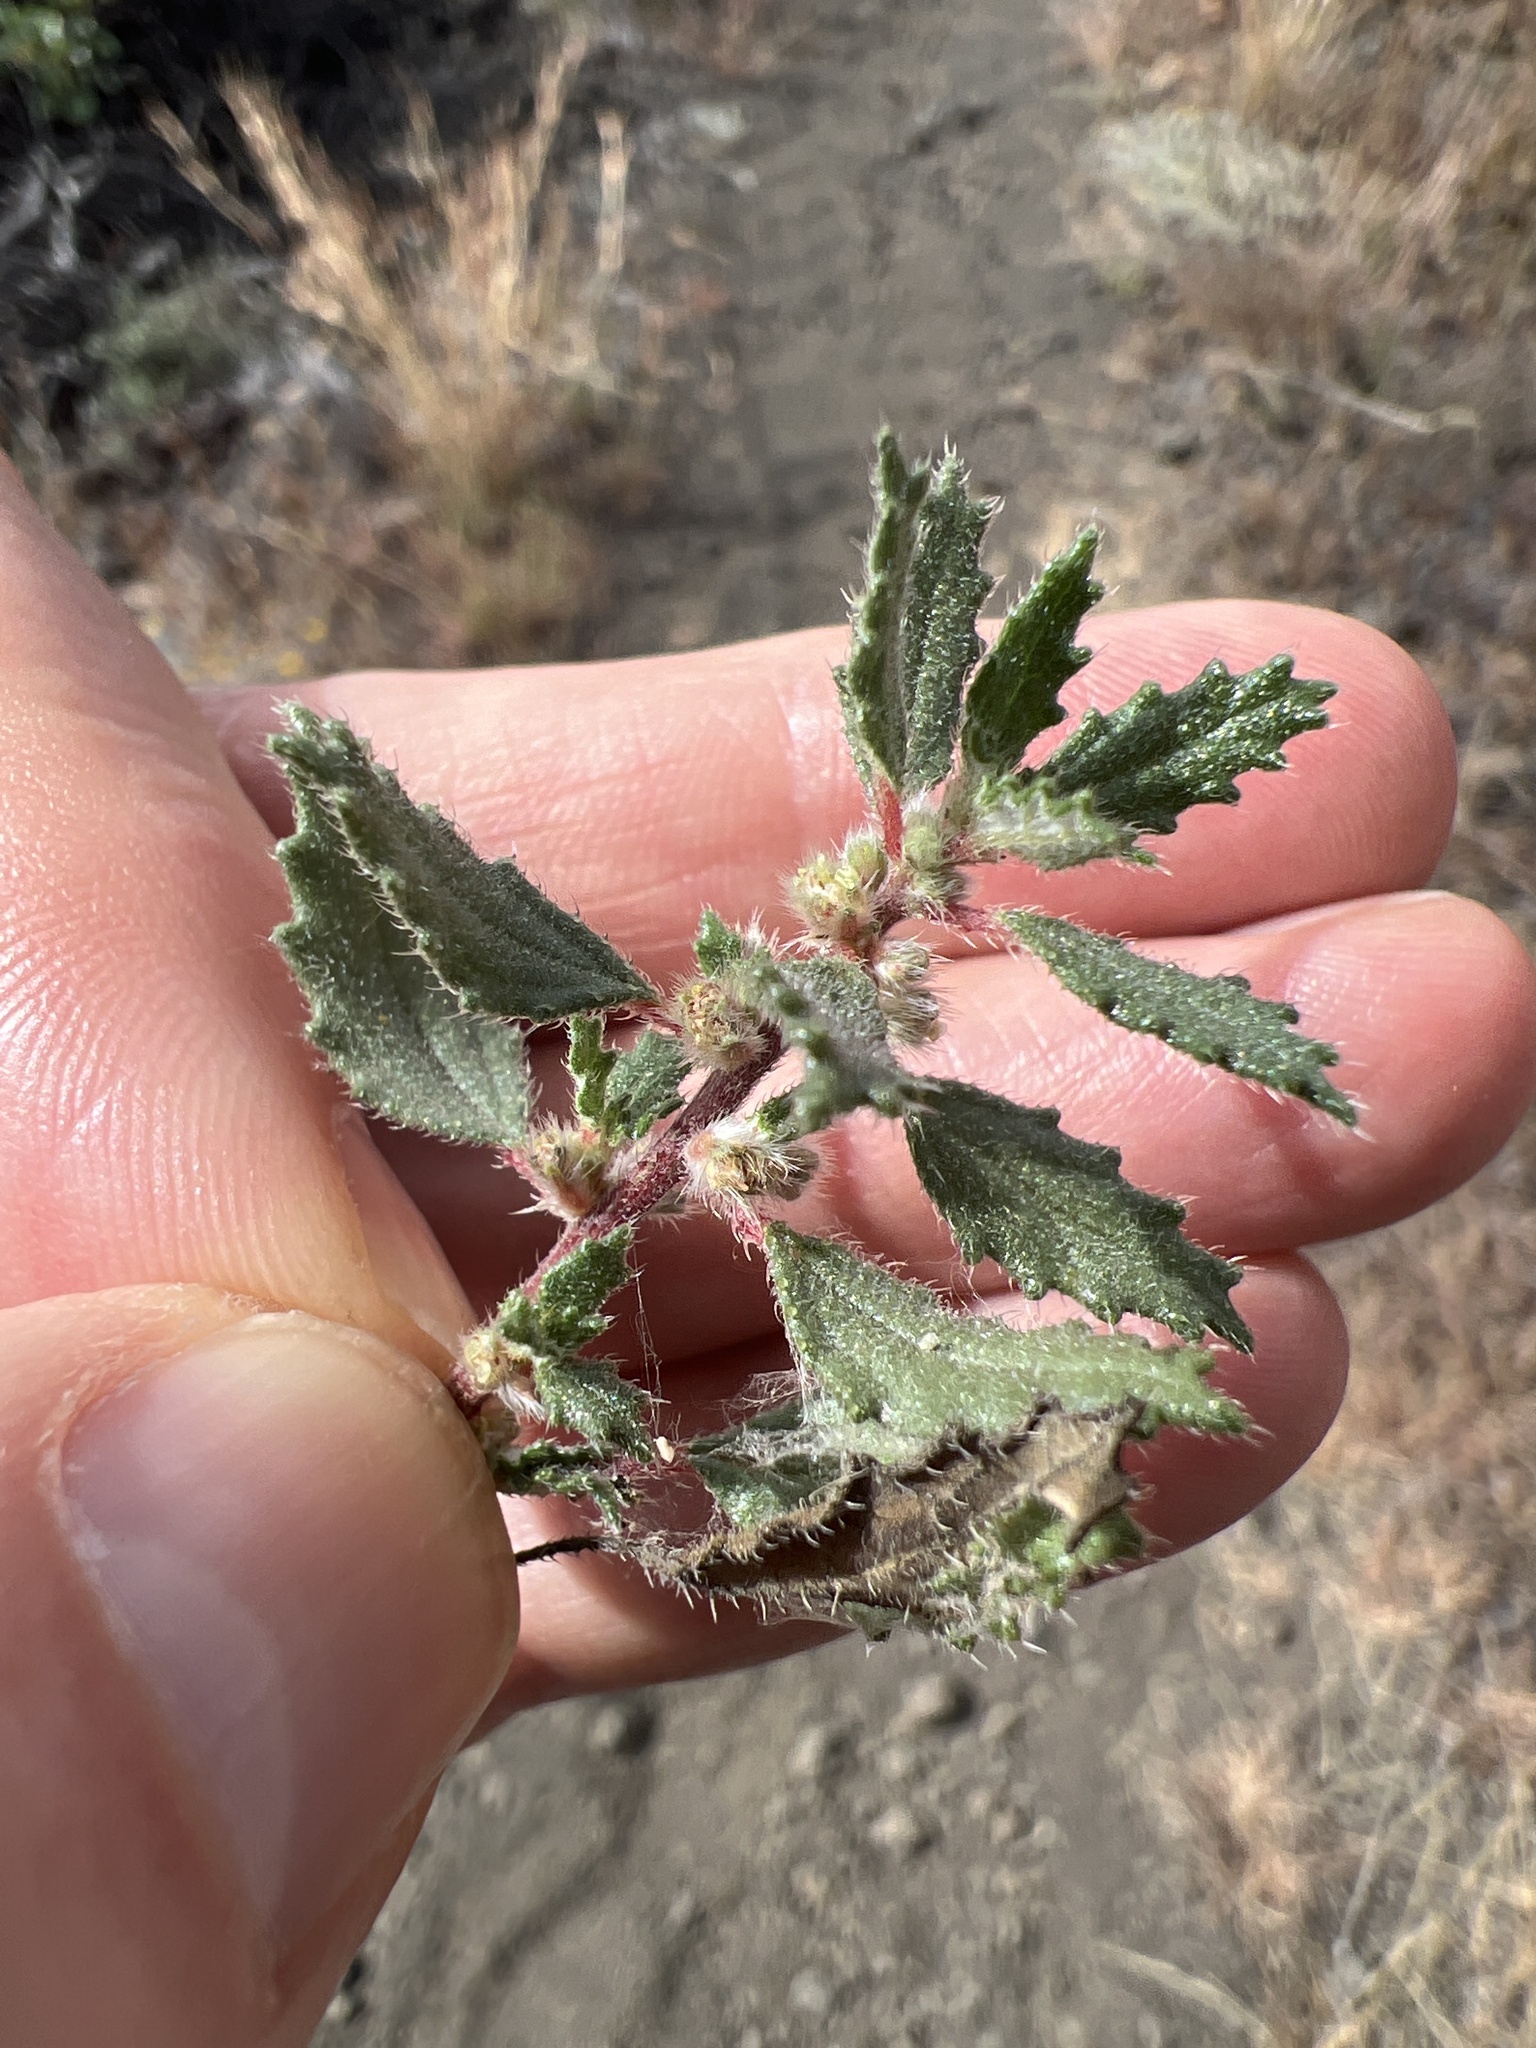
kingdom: Plantae
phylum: Tracheophyta
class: Magnoliopsida
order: Rosales
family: Urticaceae
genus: Forsskaolea
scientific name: Forsskaolea angustifolia
